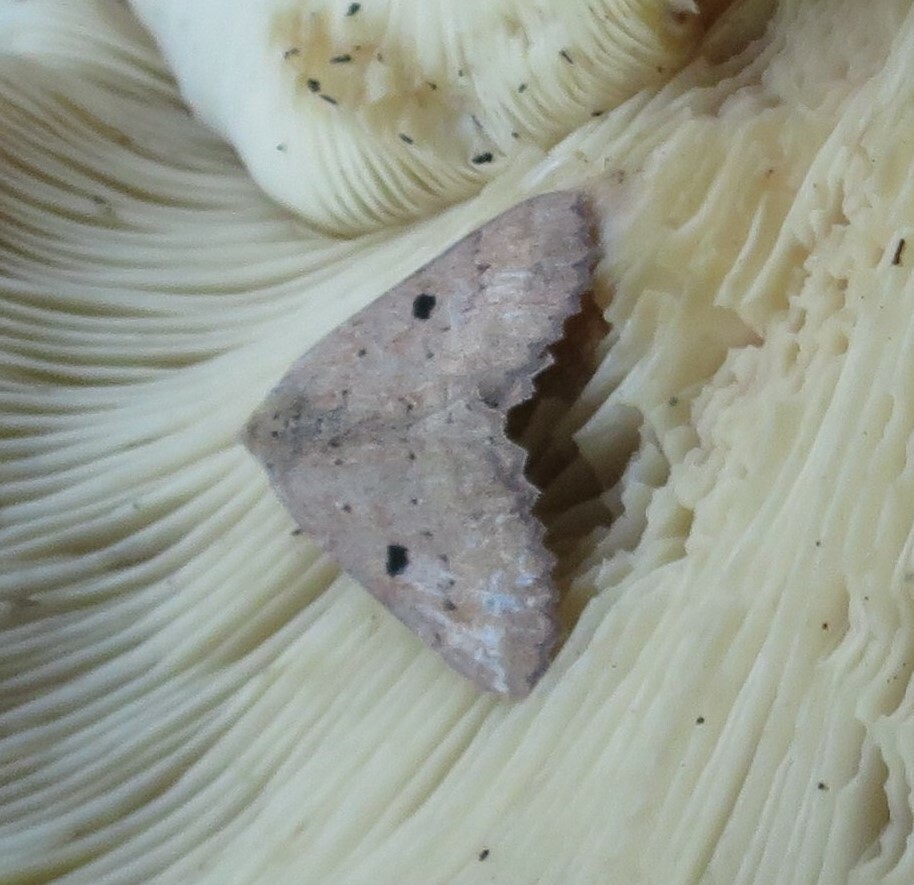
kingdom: Animalia
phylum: Arthropoda
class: Insecta
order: Lepidoptera
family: Geometridae
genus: Cleora
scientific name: Cleora scriptaria
